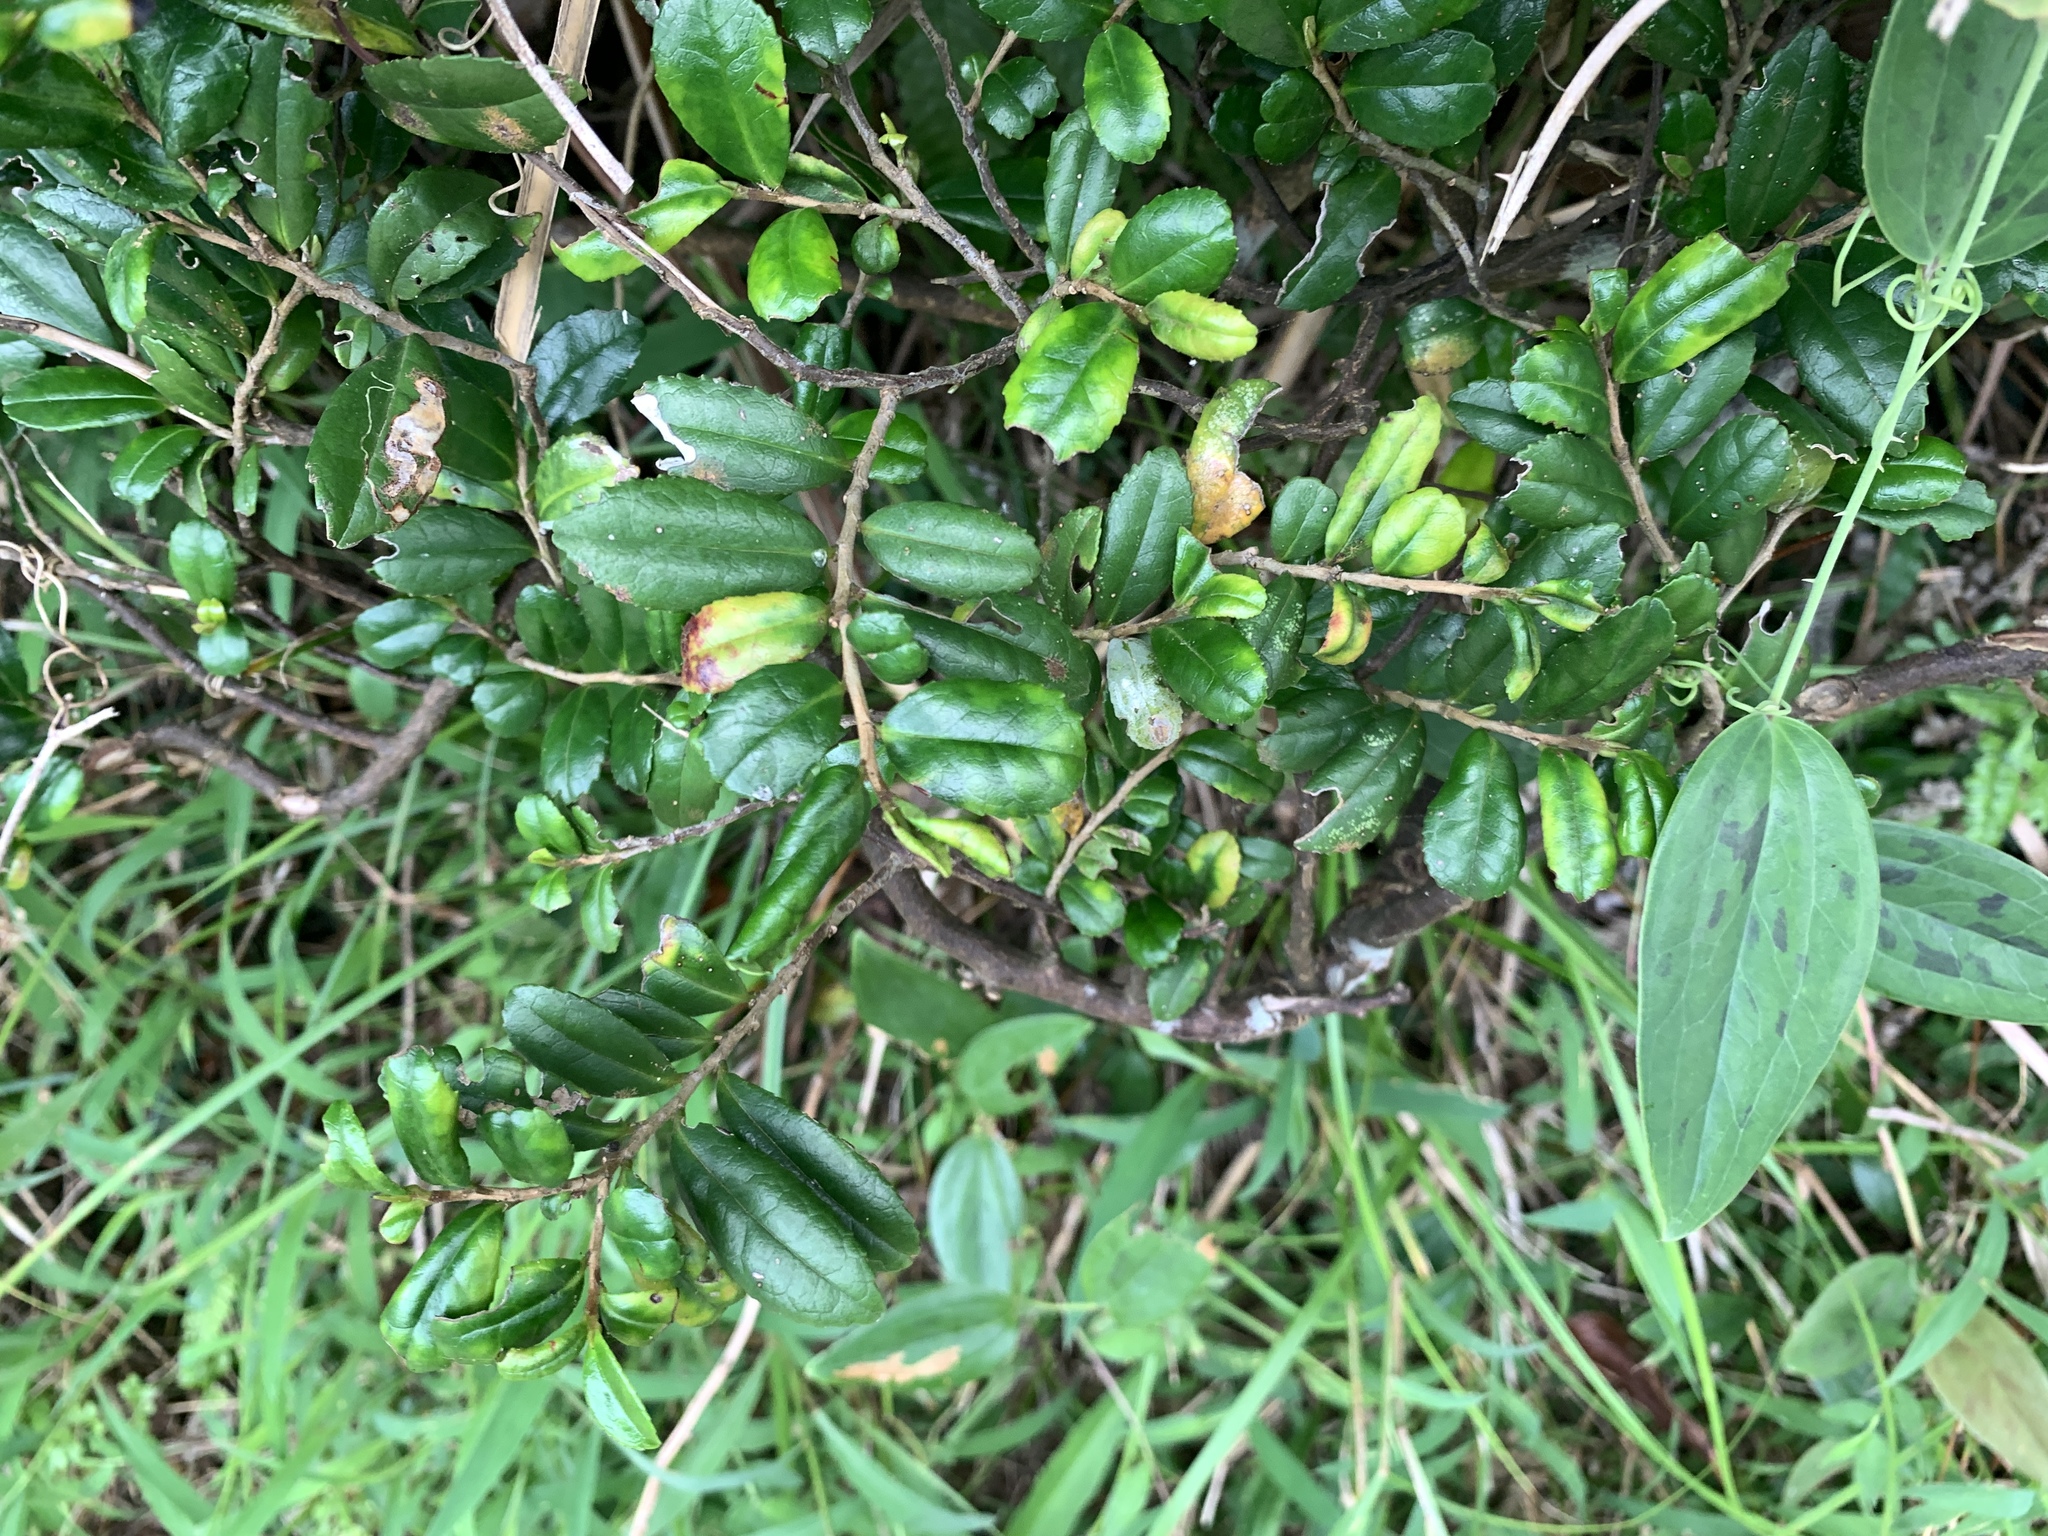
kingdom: Plantae
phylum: Tracheophyta
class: Magnoliopsida
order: Ericales
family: Pentaphylacaceae
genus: Eurya
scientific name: Eurya emarginata
